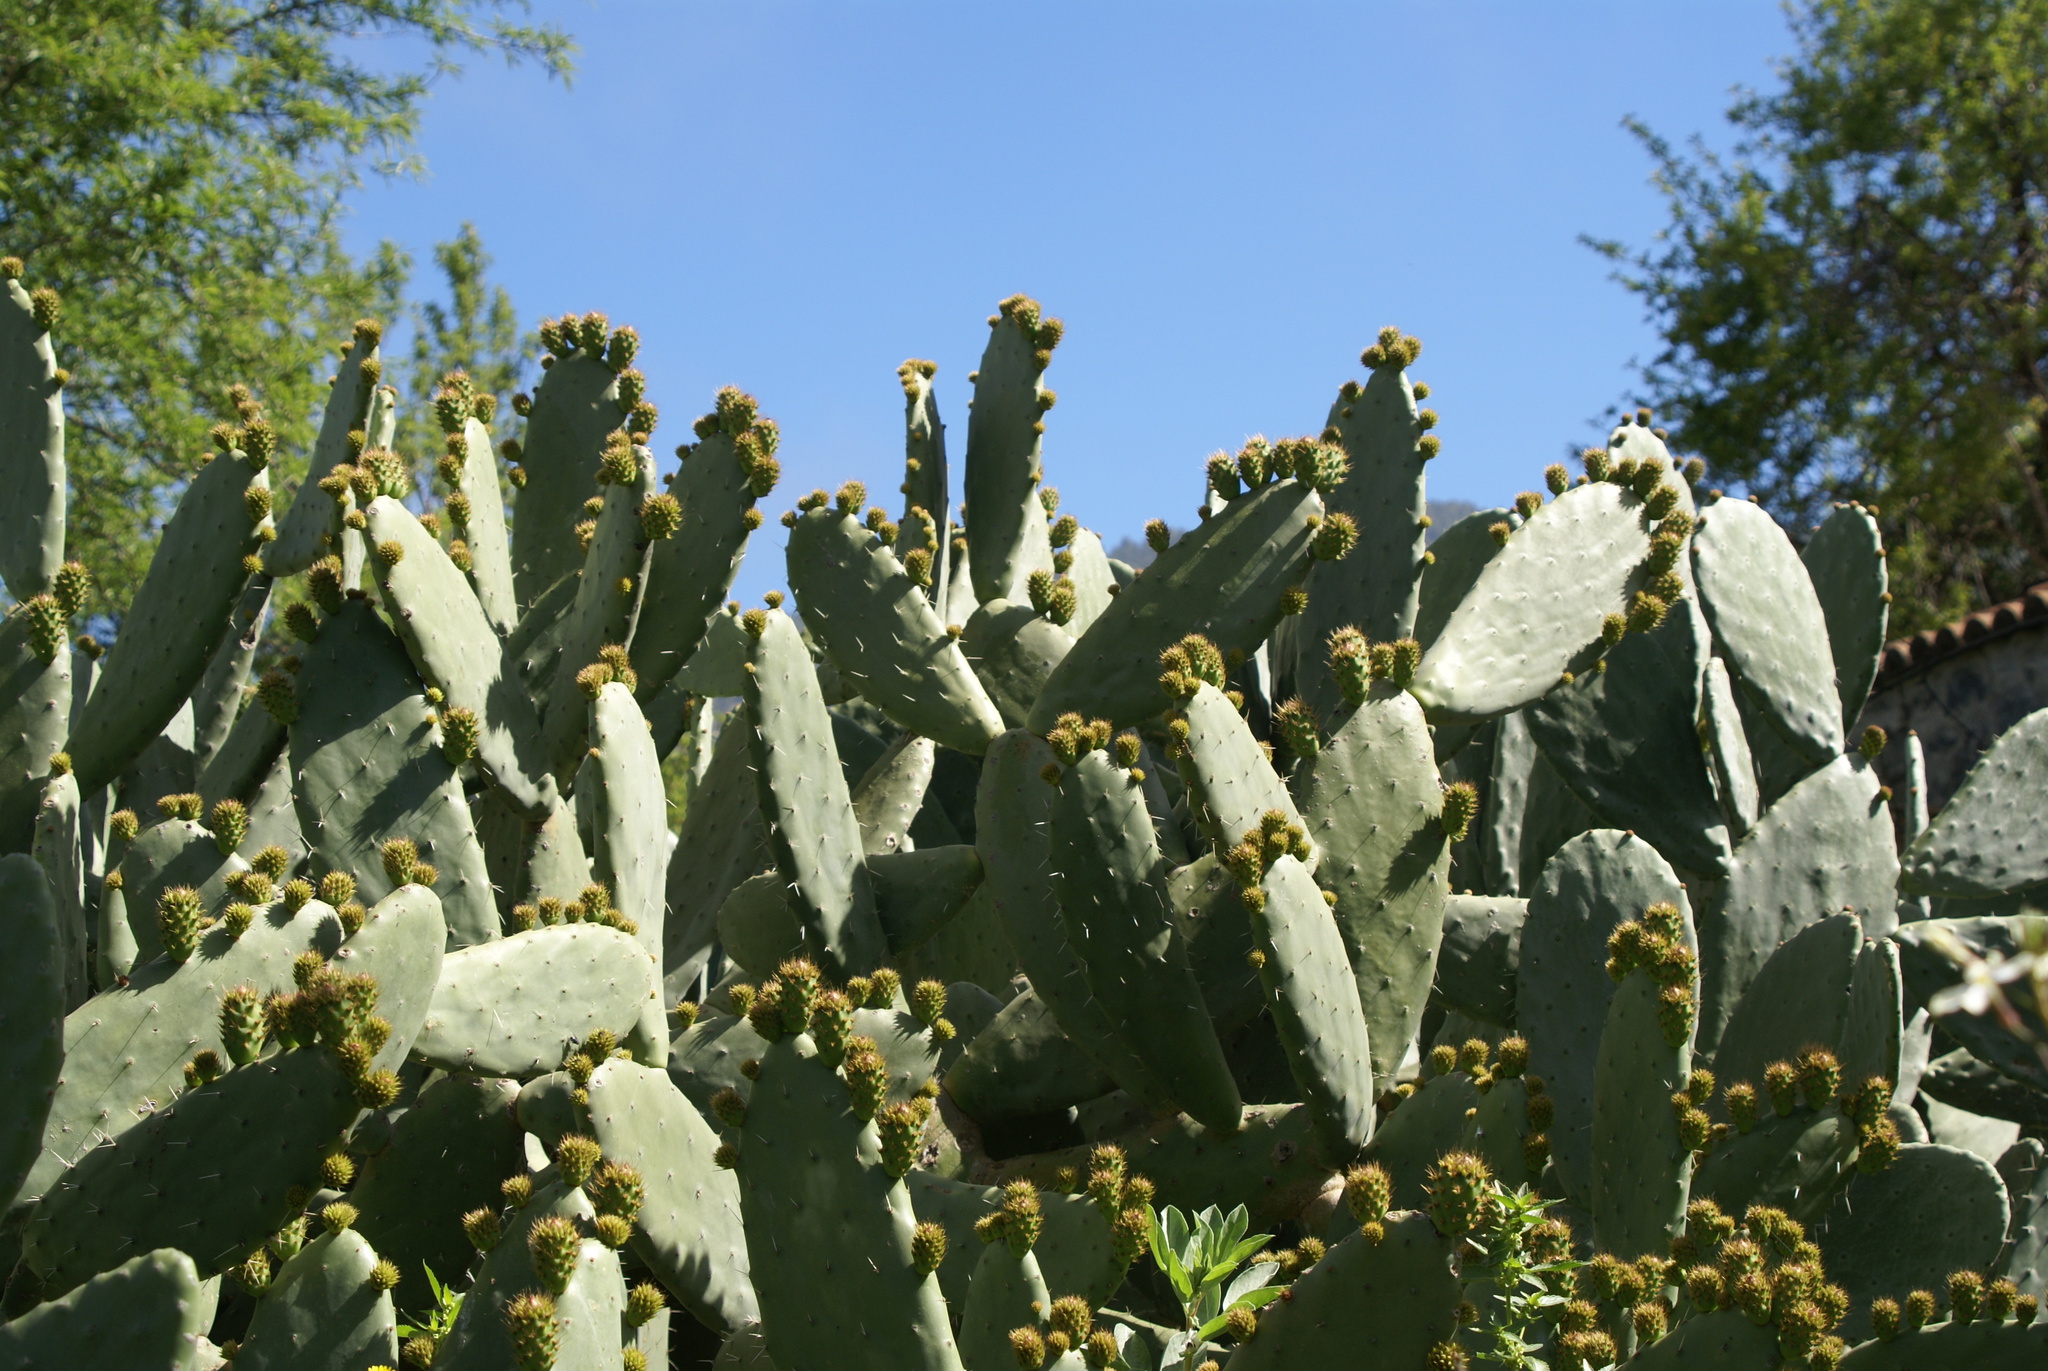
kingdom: Plantae
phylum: Tracheophyta
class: Magnoliopsida
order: Caryophyllales
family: Cactaceae
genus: Opuntia
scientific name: Opuntia ficus-indica
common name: Barbary fig
